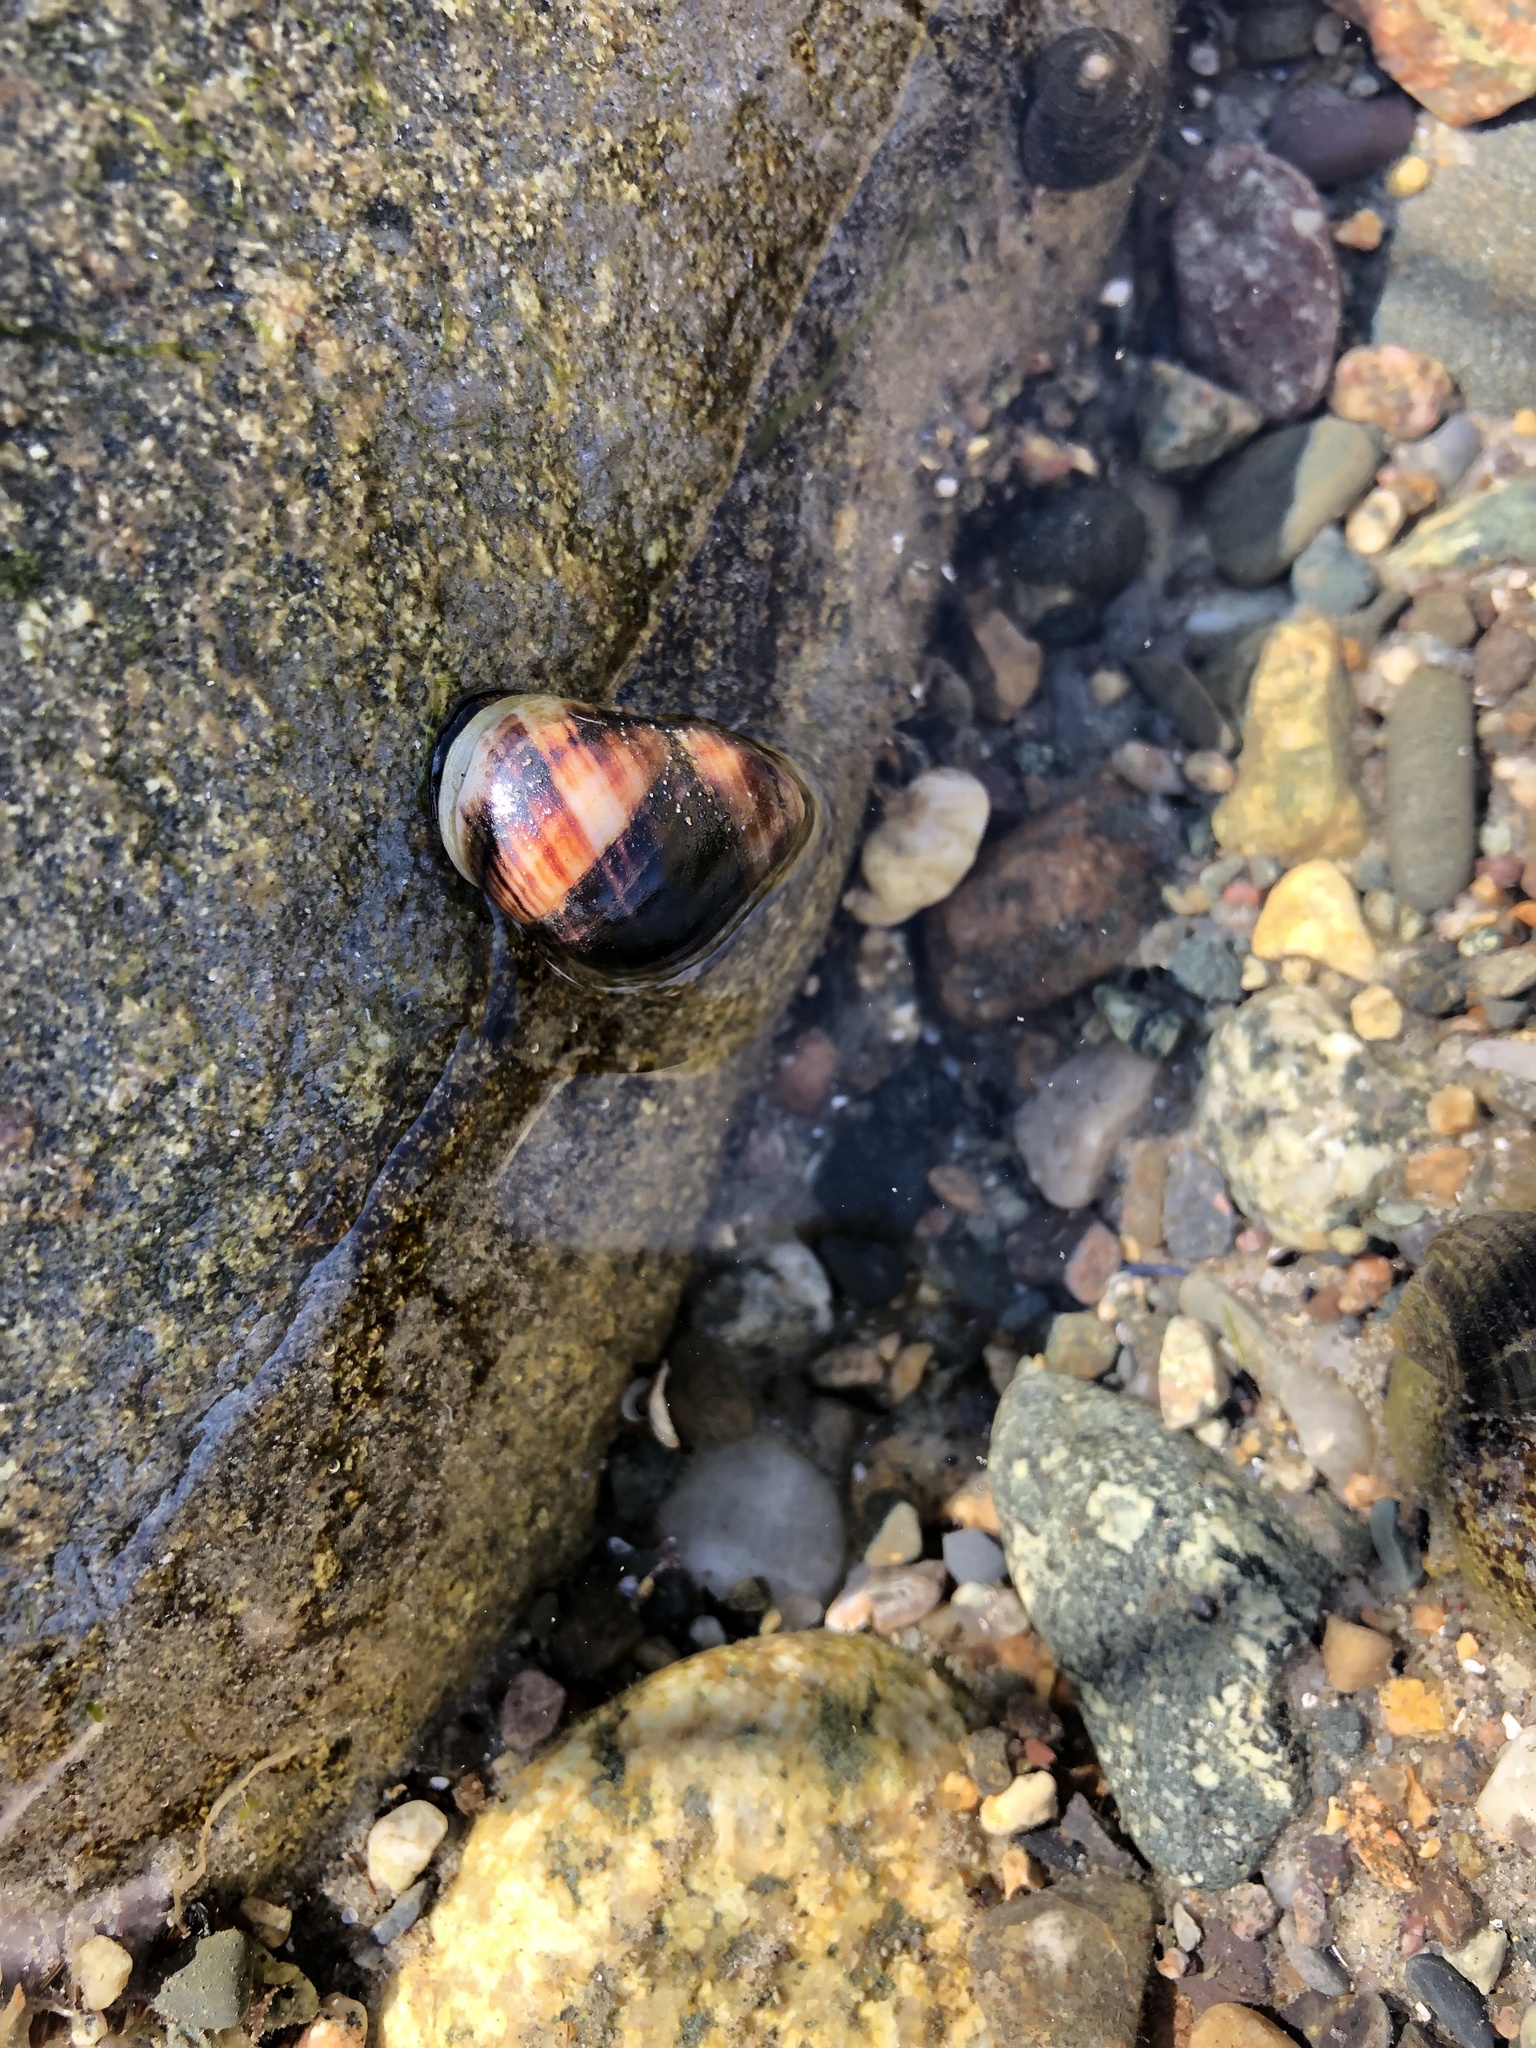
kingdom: Animalia
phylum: Mollusca
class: Gastropoda
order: Littorinimorpha
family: Littorinidae
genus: Littorina
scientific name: Littorina littorea
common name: Common periwinkle
